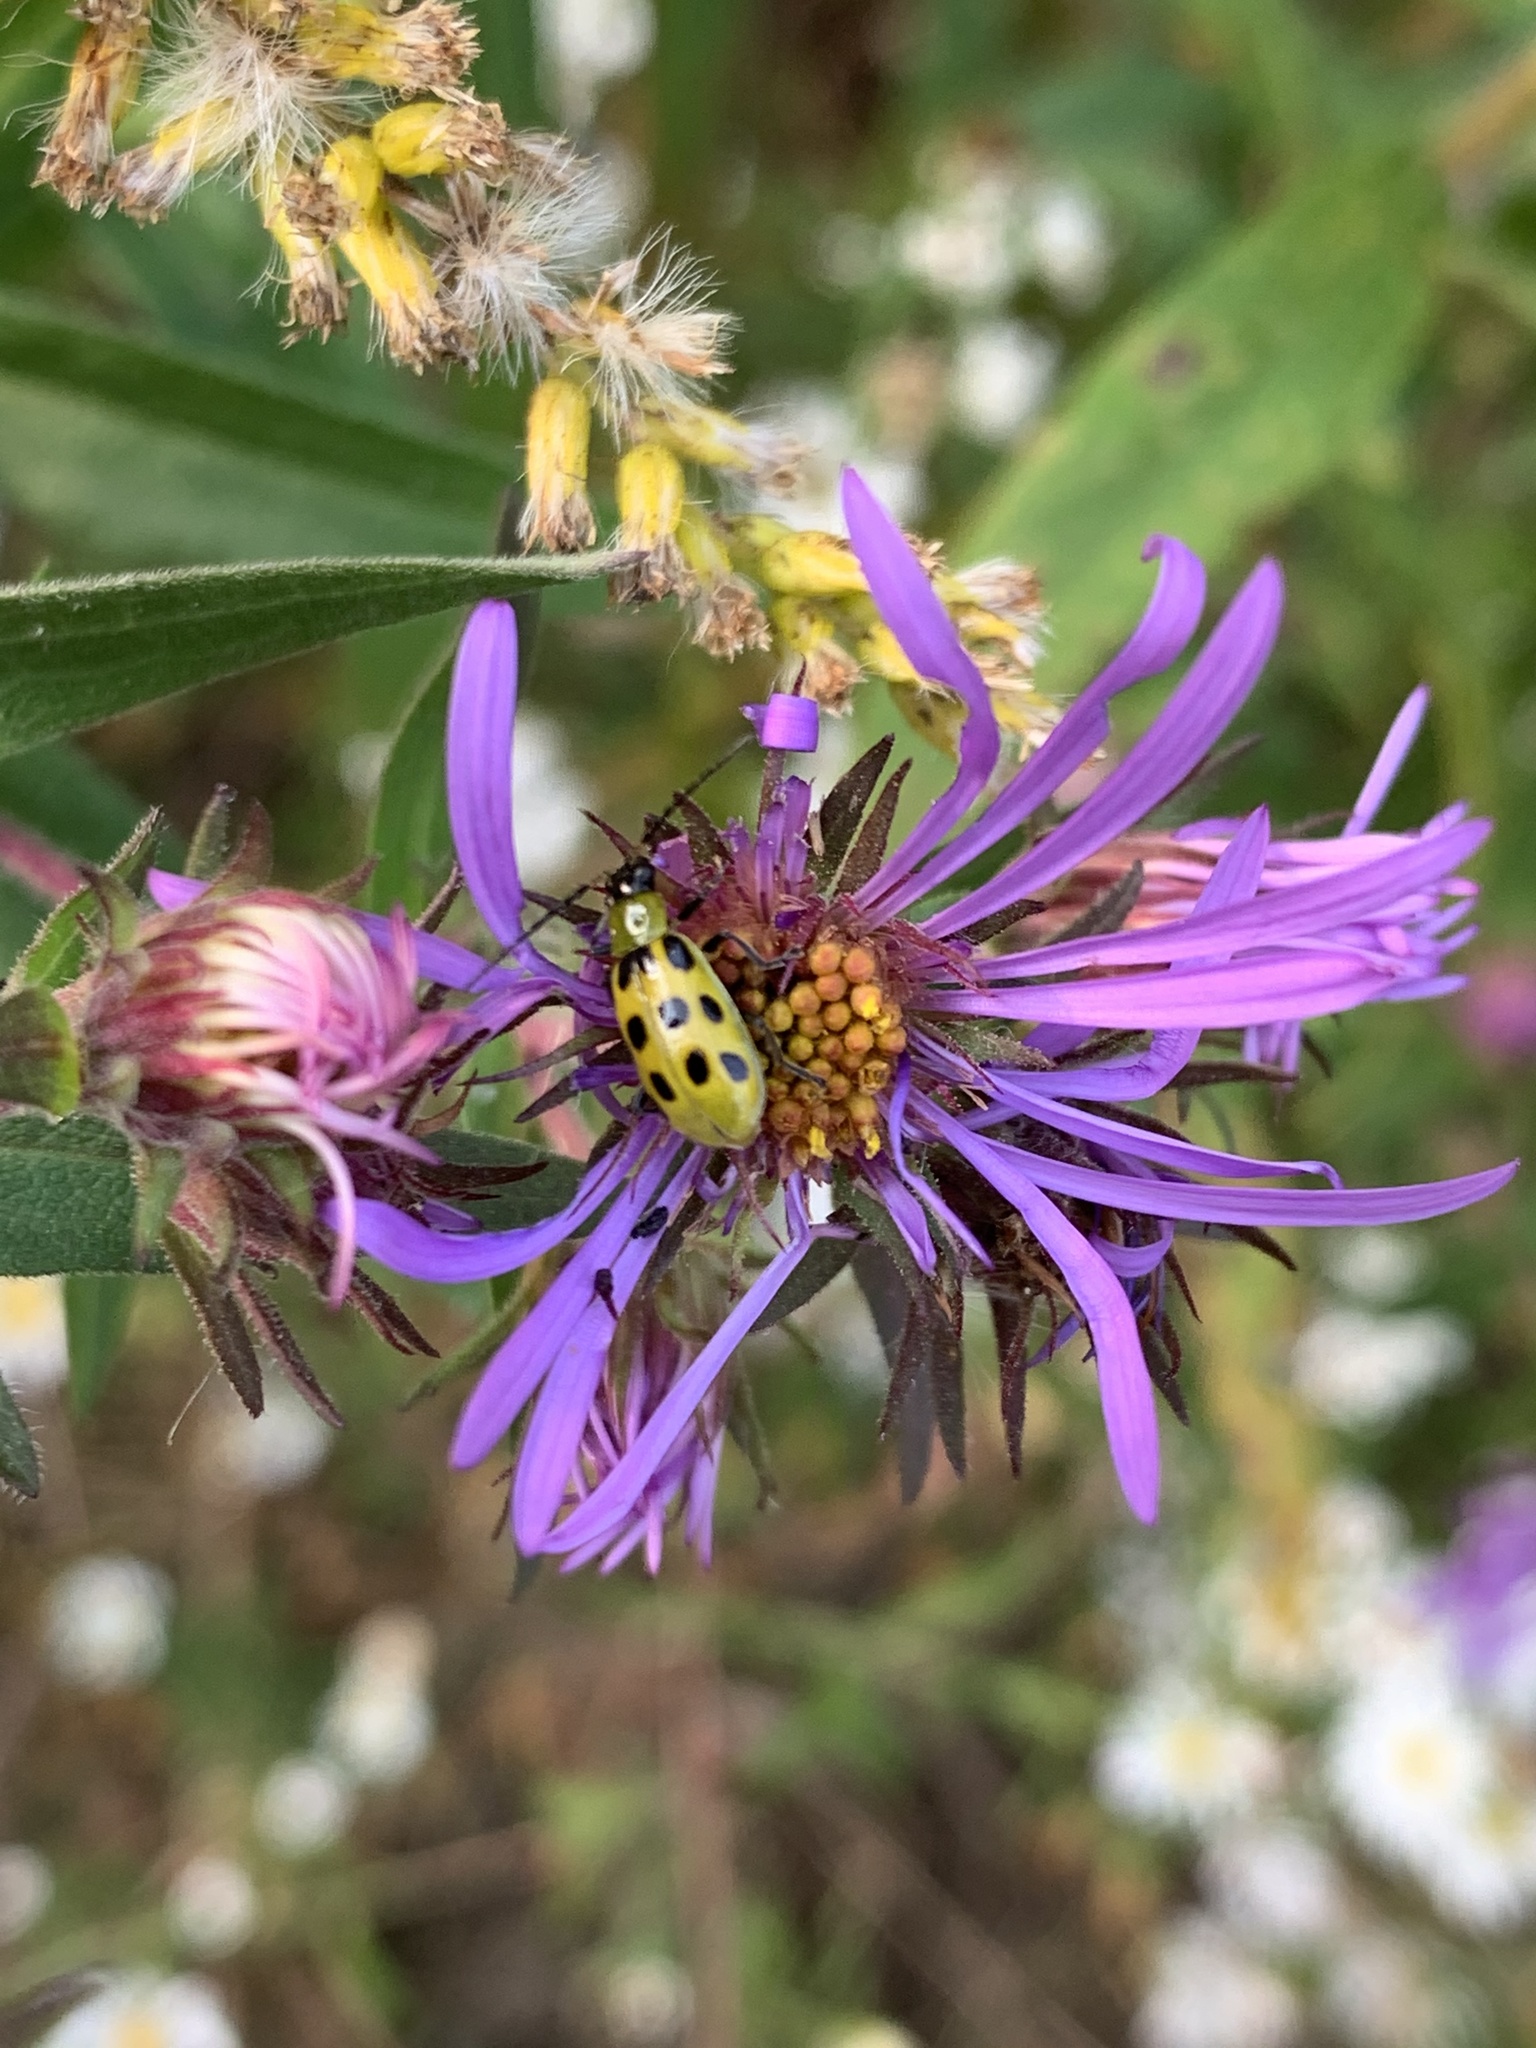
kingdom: Animalia
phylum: Arthropoda
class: Insecta
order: Coleoptera
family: Chrysomelidae
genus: Diabrotica
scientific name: Diabrotica undecimpunctata
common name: Spotted cucumber beetle
